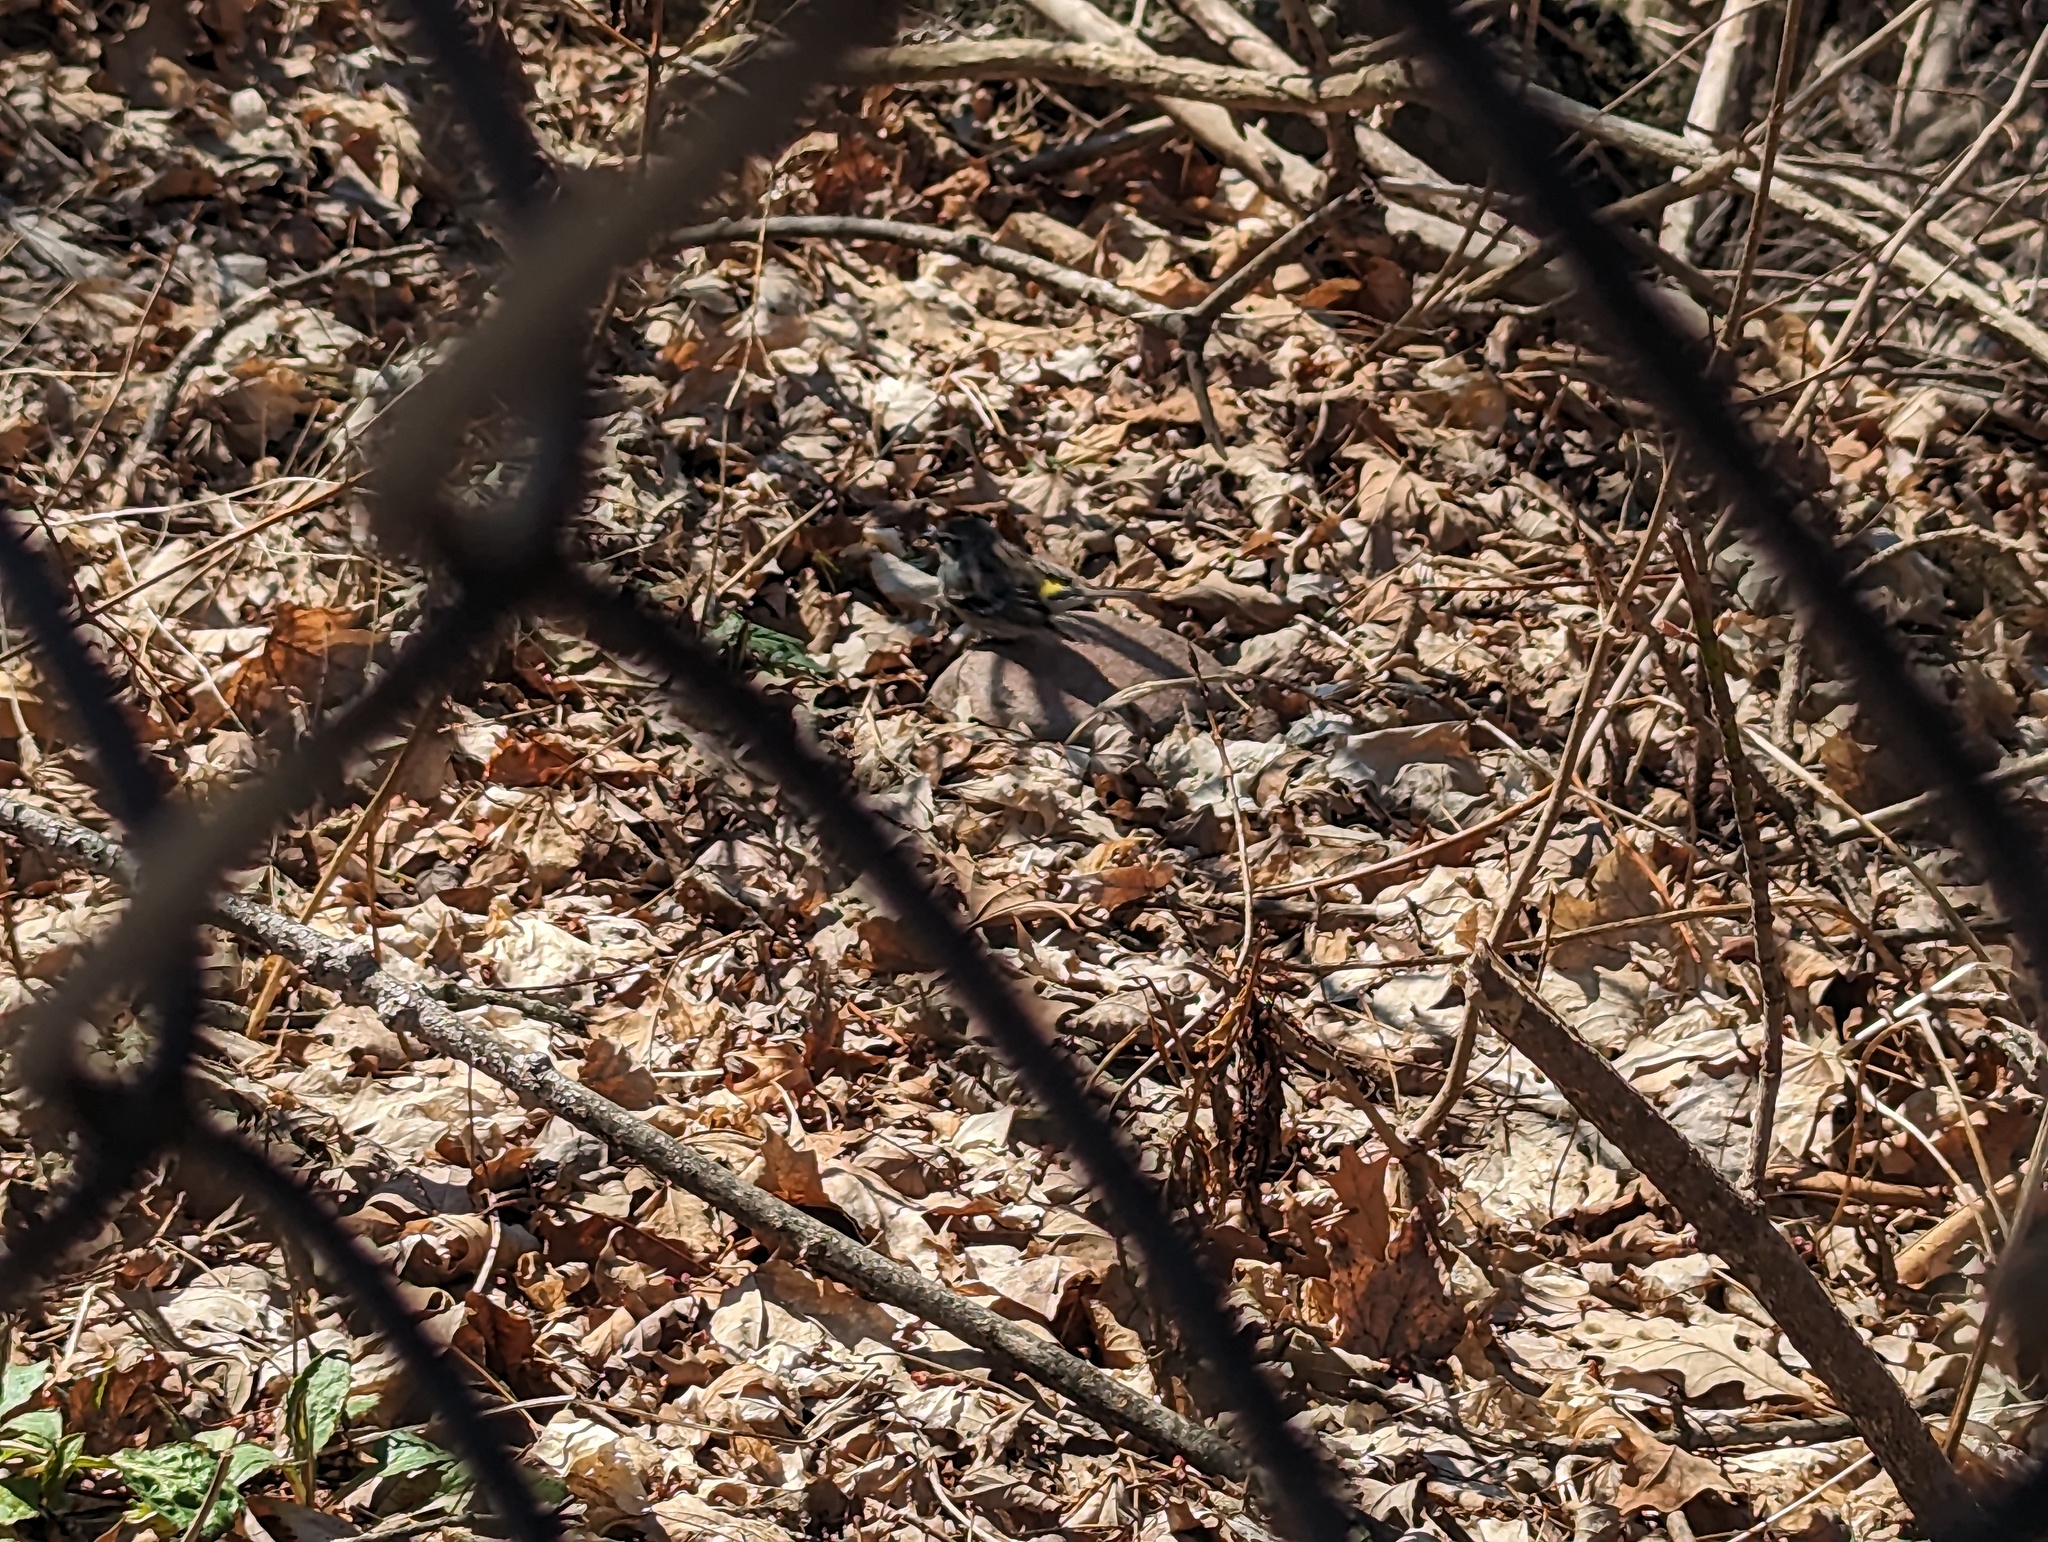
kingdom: Animalia
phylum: Chordata
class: Aves
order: Passeriformes
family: Parulidae
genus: Setophaga
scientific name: Setophaga coronata
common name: Myrtle warbler
